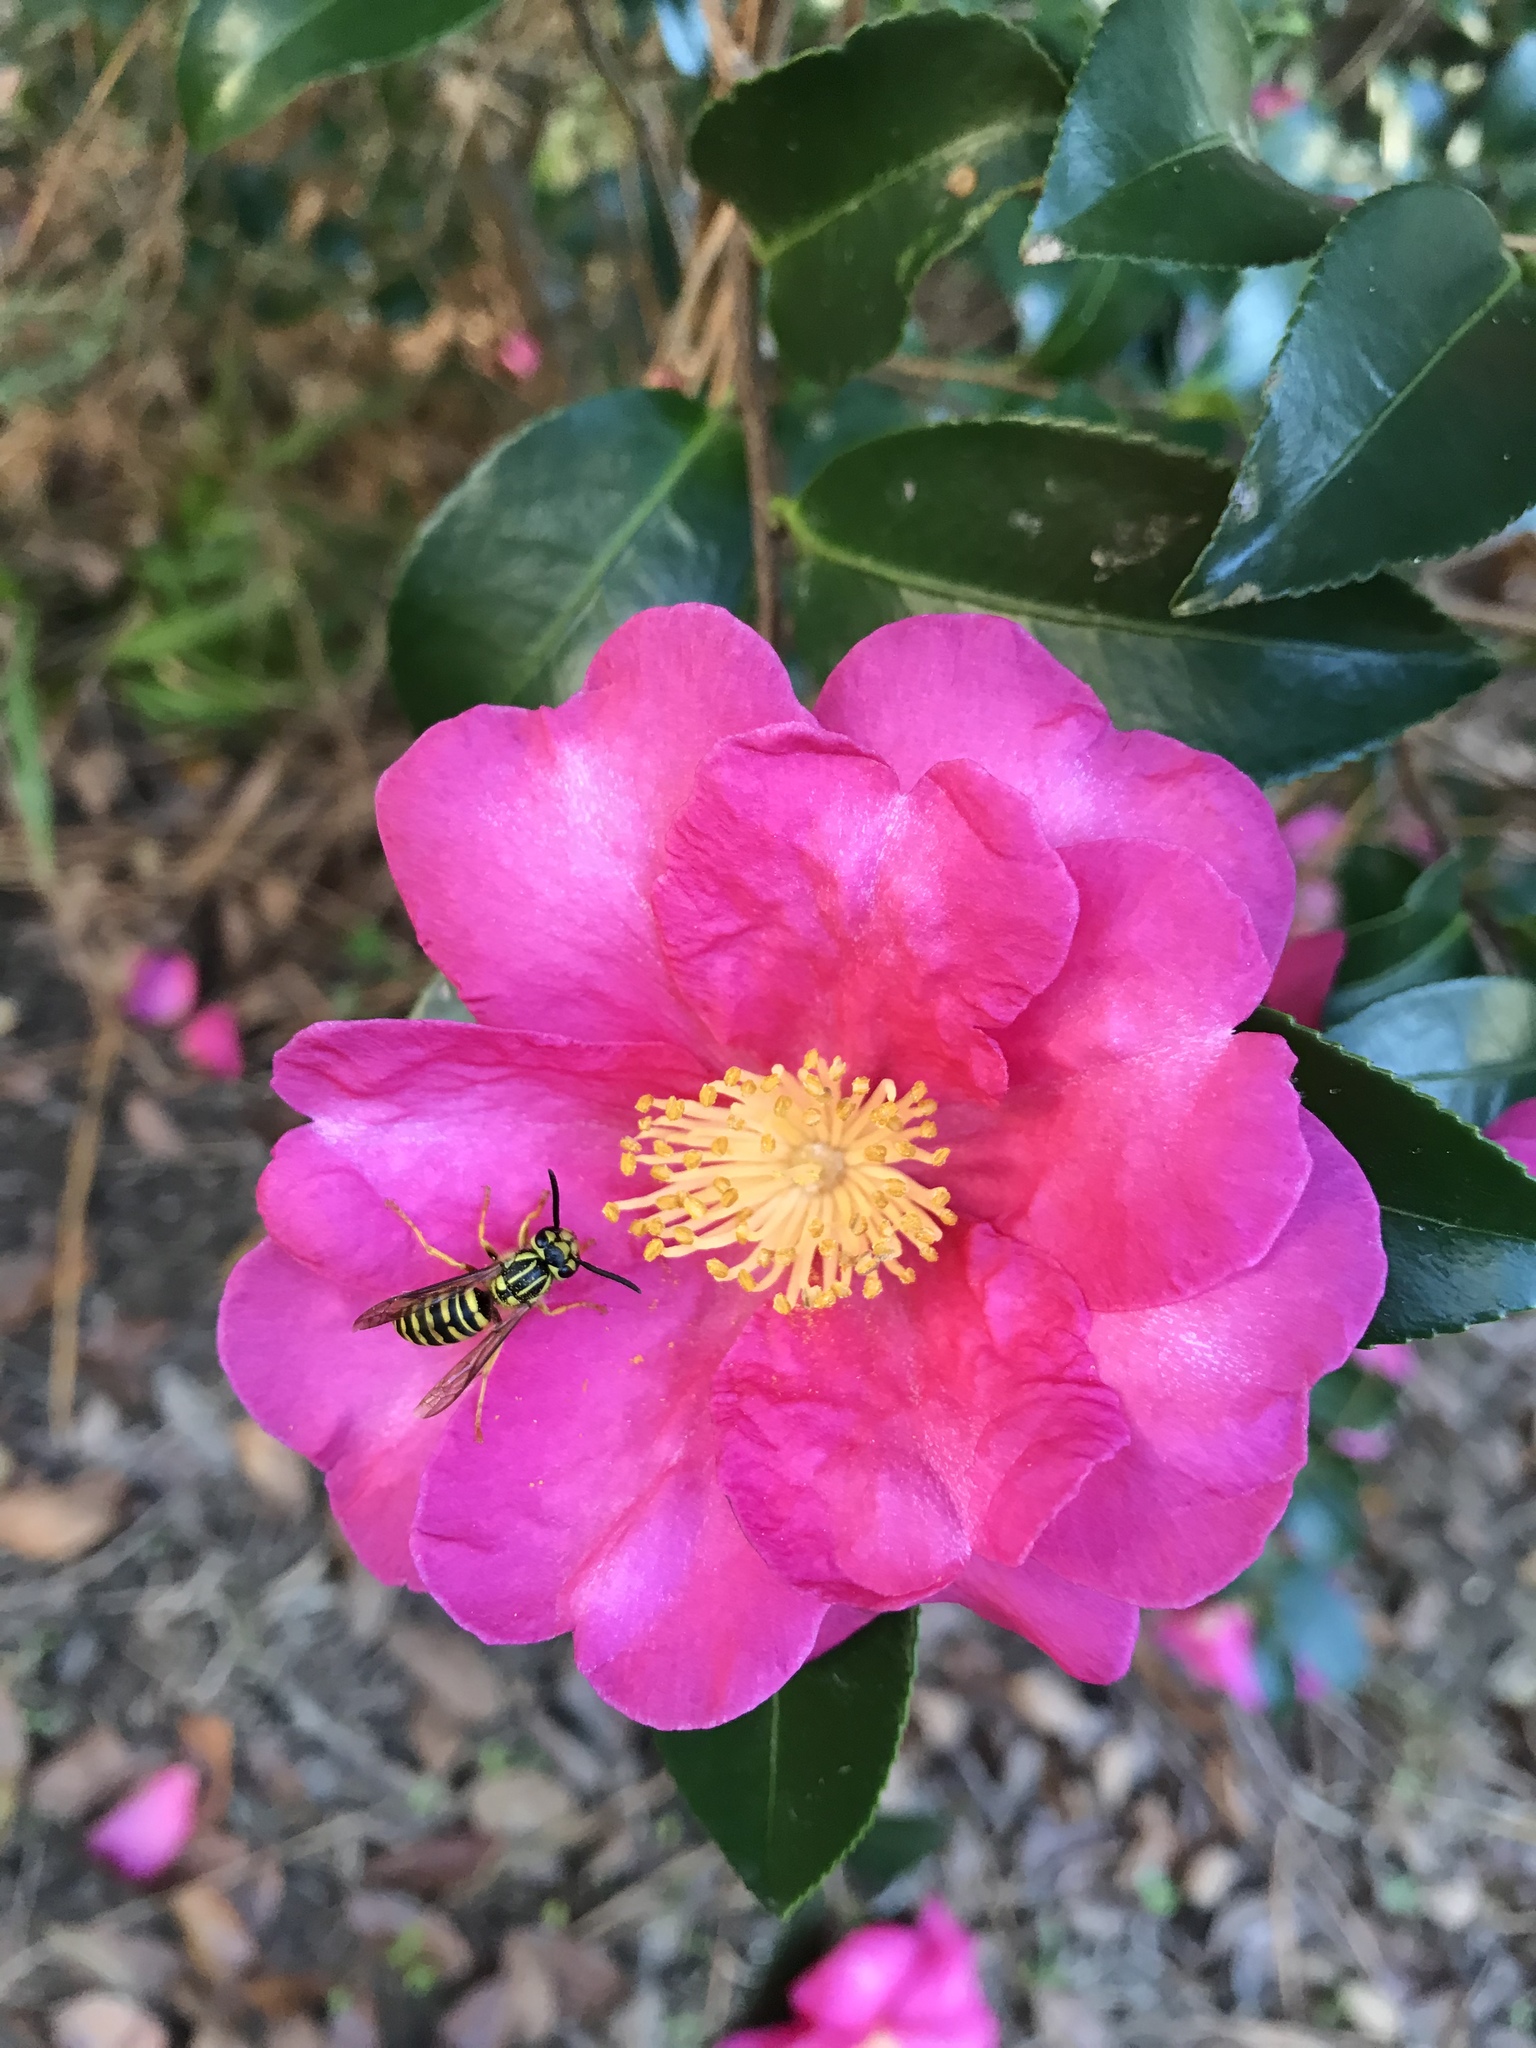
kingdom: Animalia
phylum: Arthropoda
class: Insecta
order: Hymenoptera
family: Vespidae
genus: Vespula
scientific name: Vespula squamosa
